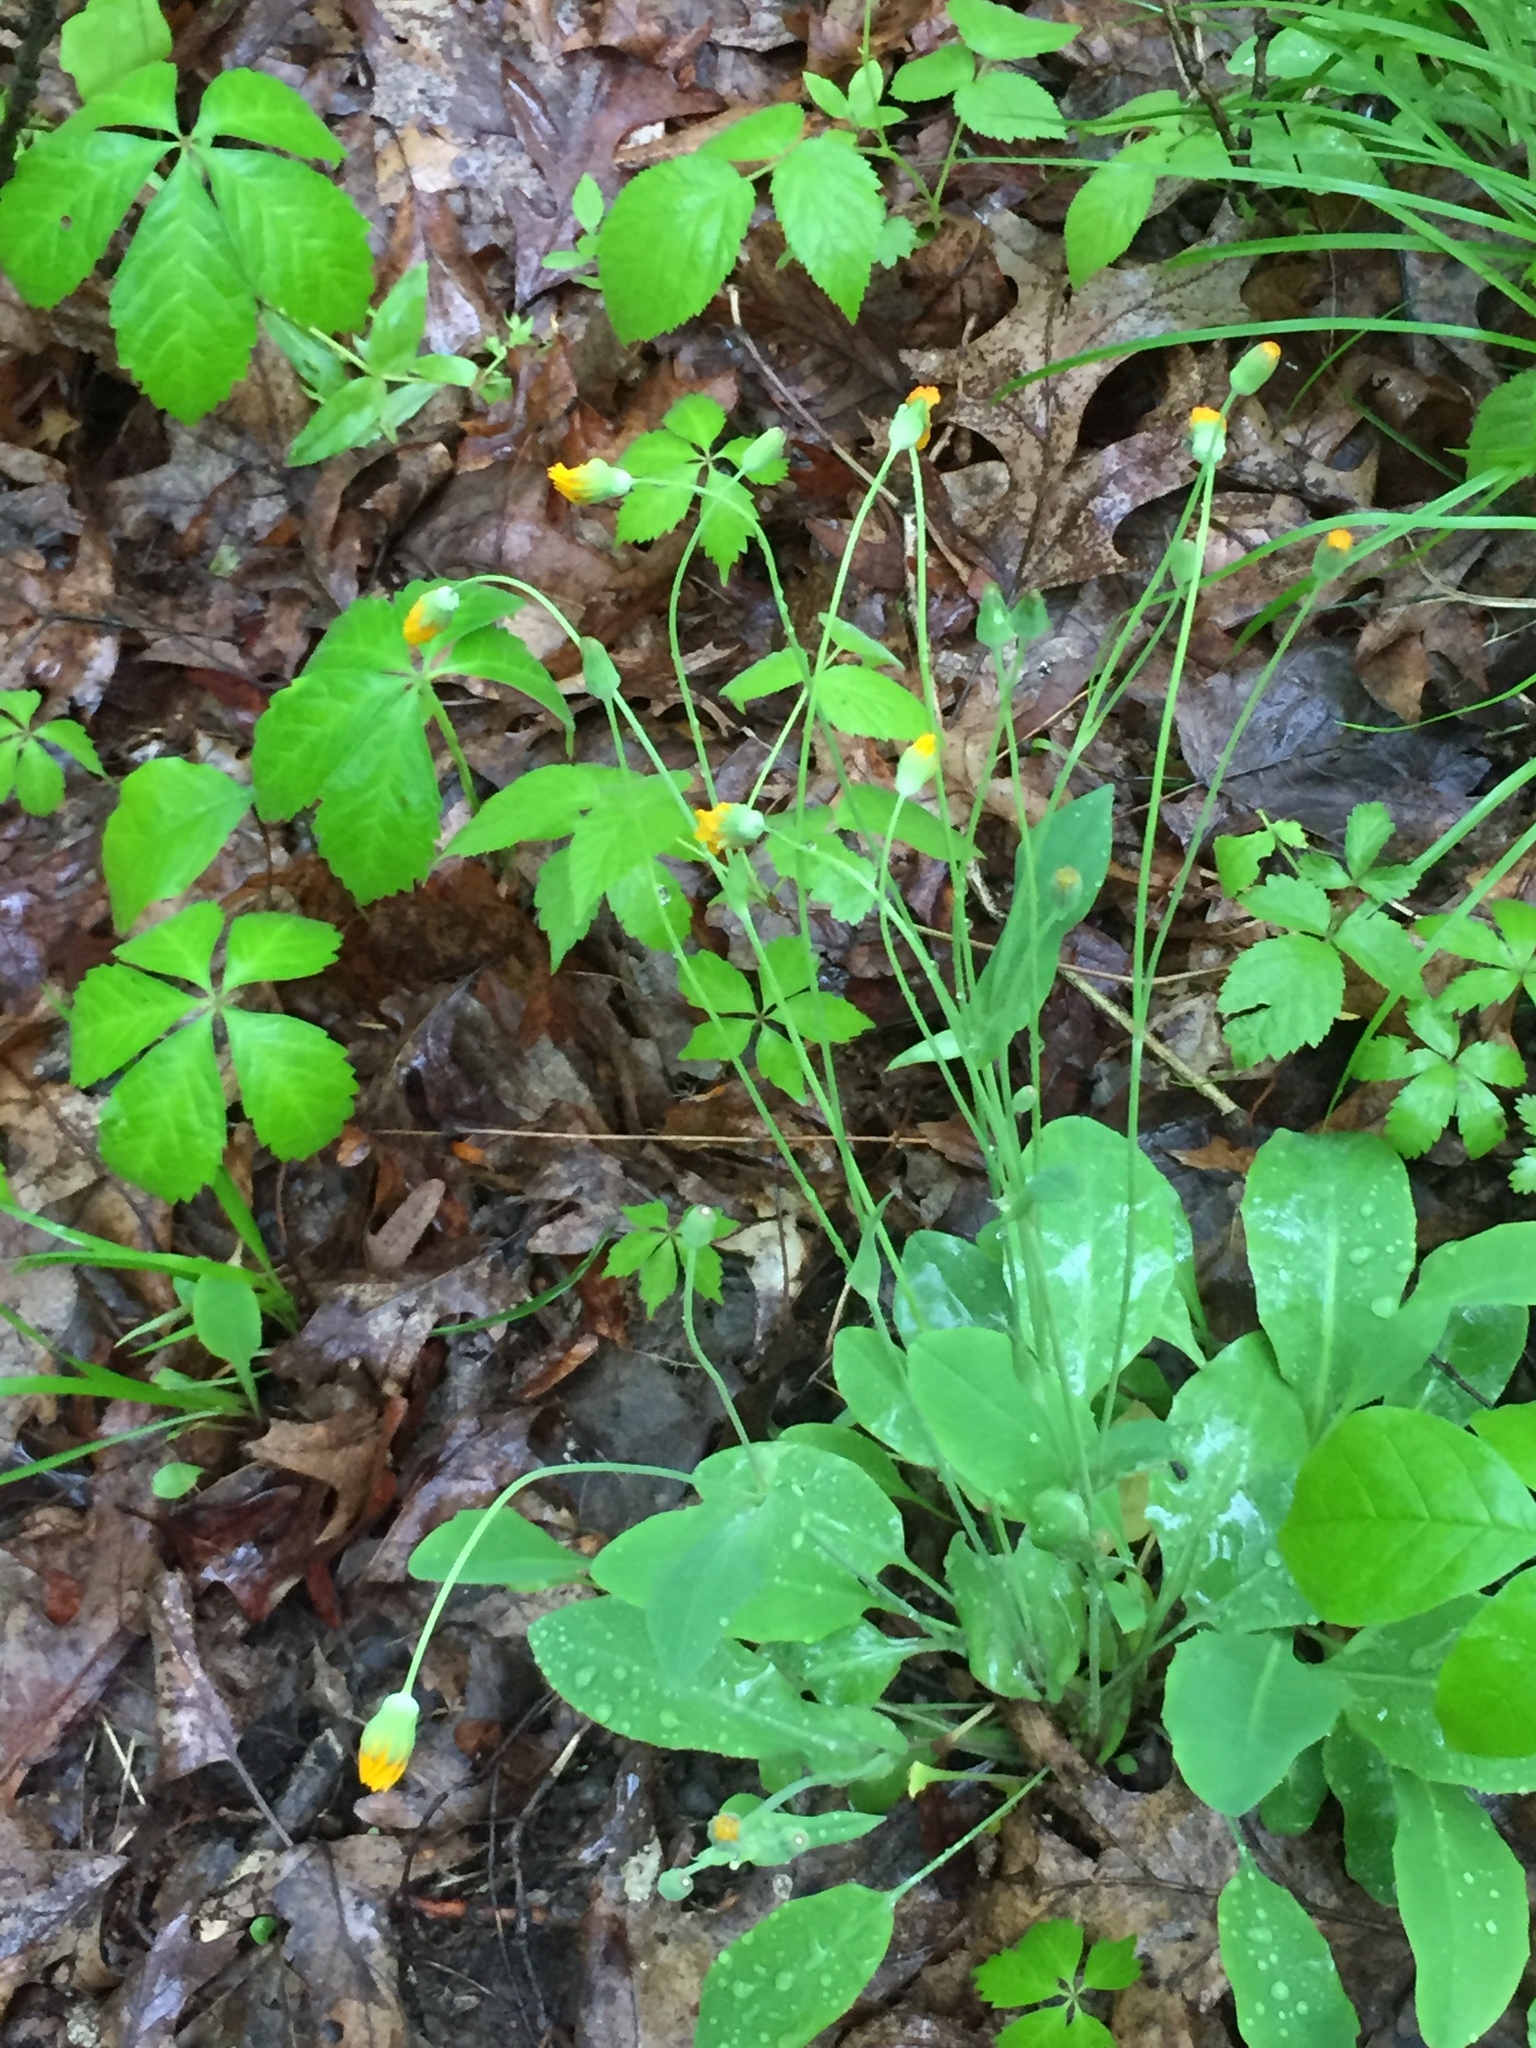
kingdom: Plantae
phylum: Tracheophyta
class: Magnoliopsida
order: Asterales
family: Asteraceae
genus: Krigia
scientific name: Krigia biflora
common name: Orange dwarf-dandelion
